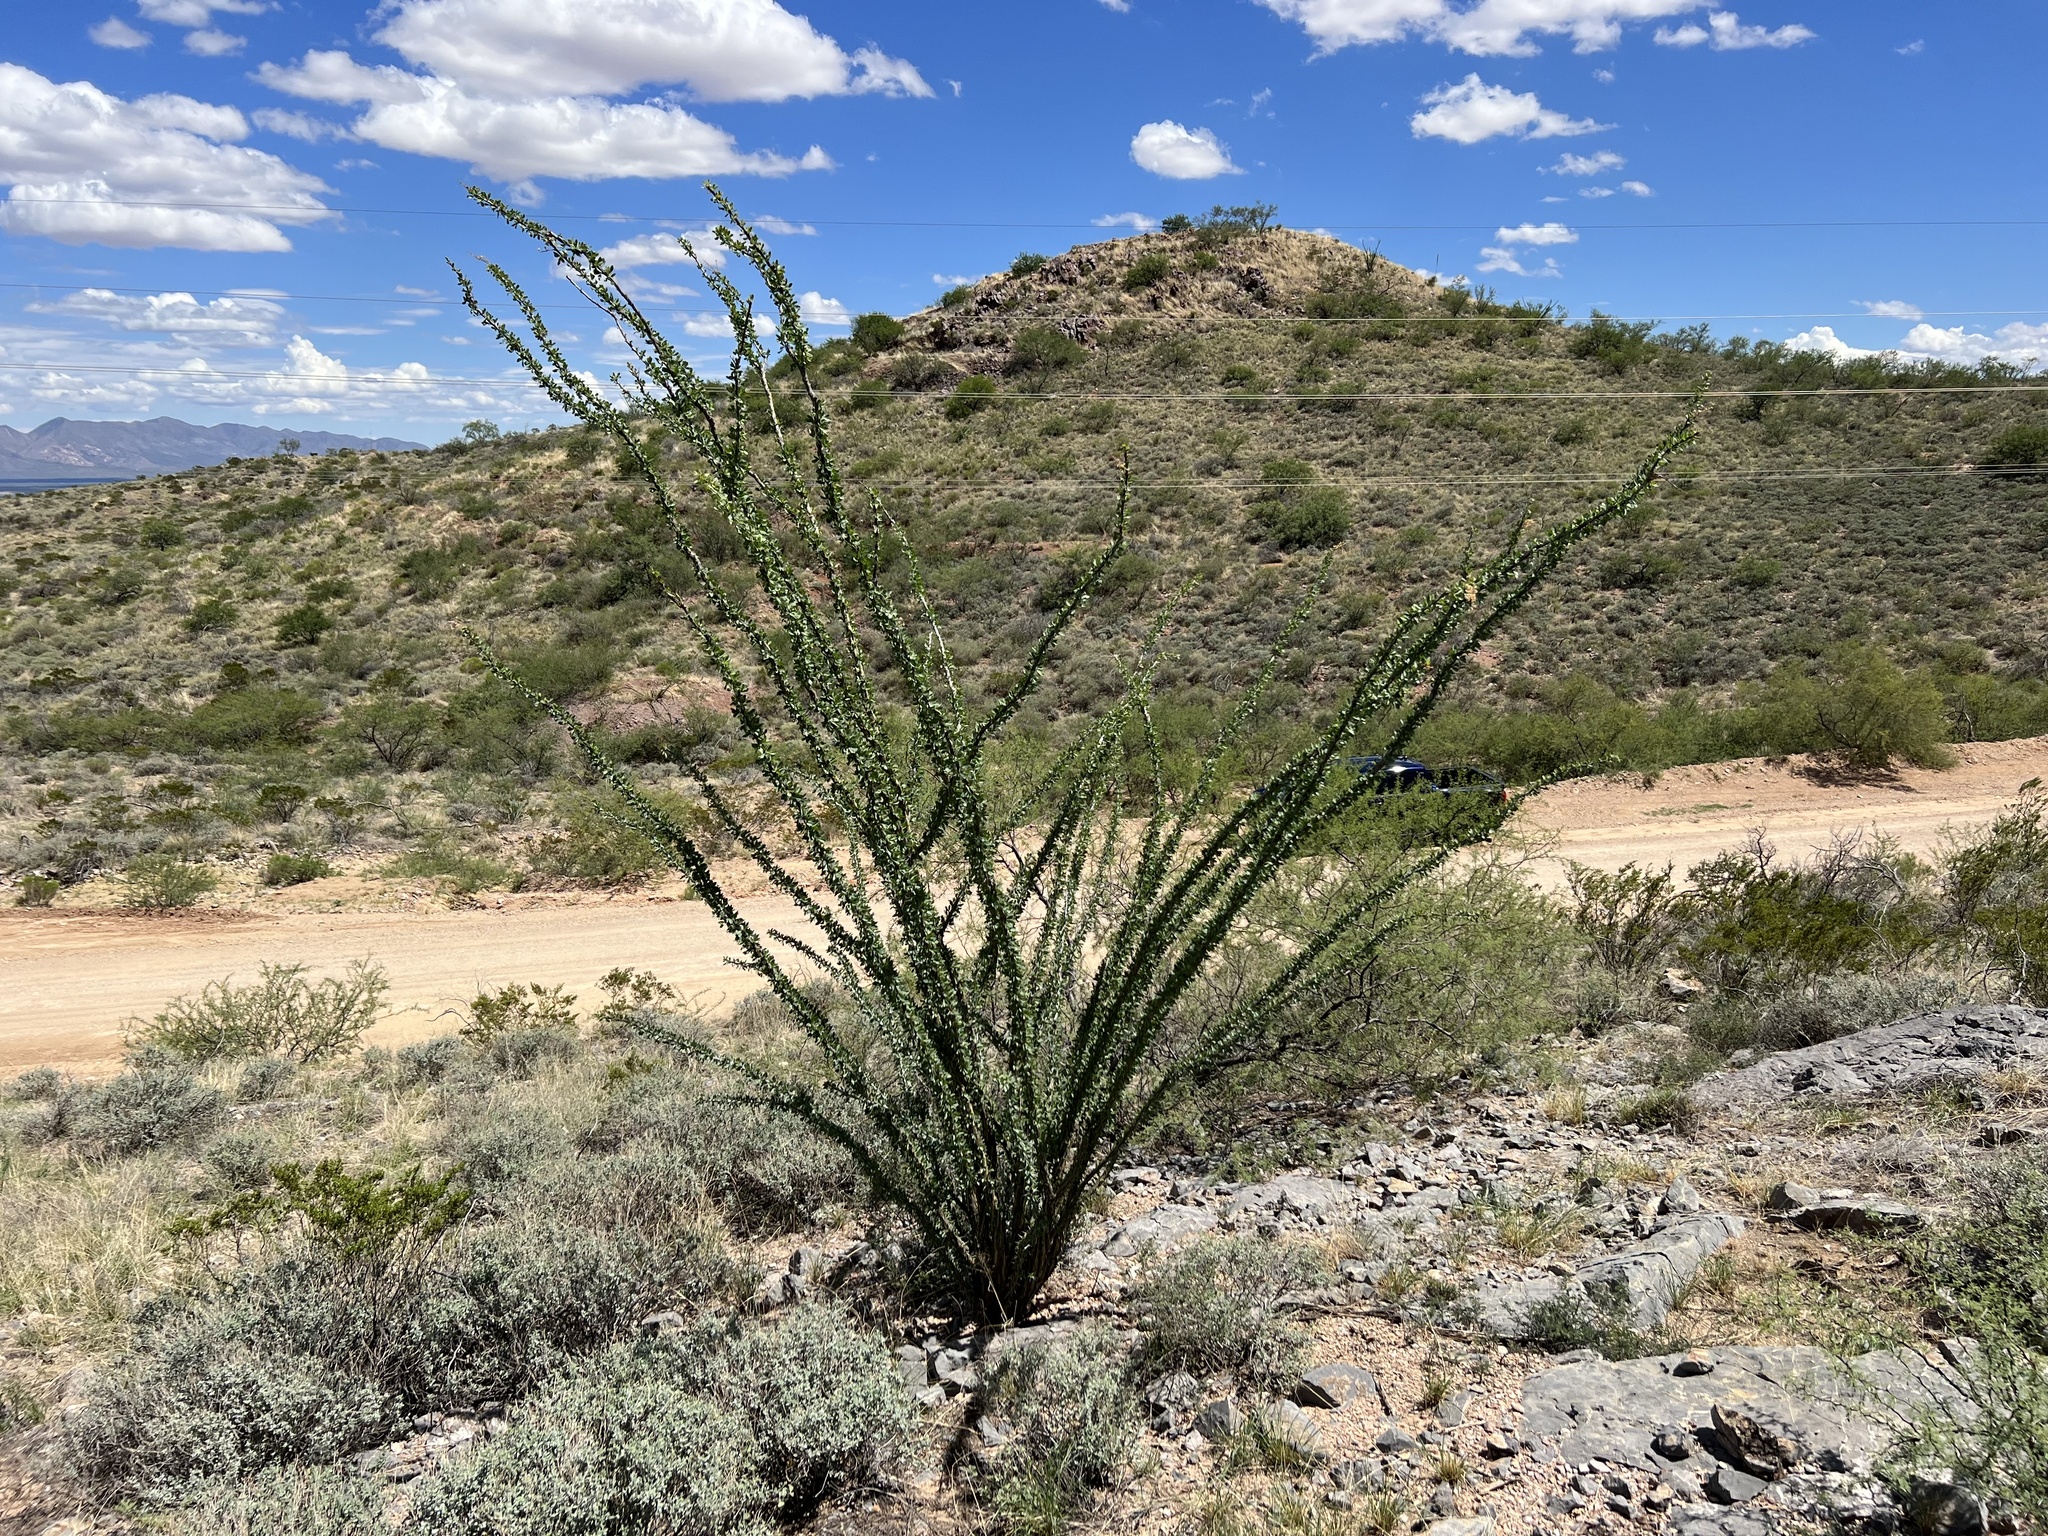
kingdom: Plantae
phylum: Tracheophyta
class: Magnoliopsida
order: Ericales
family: Fouquieriaceae
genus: Fouquieria
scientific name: Fouquieria splendens
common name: Vine-cactus
